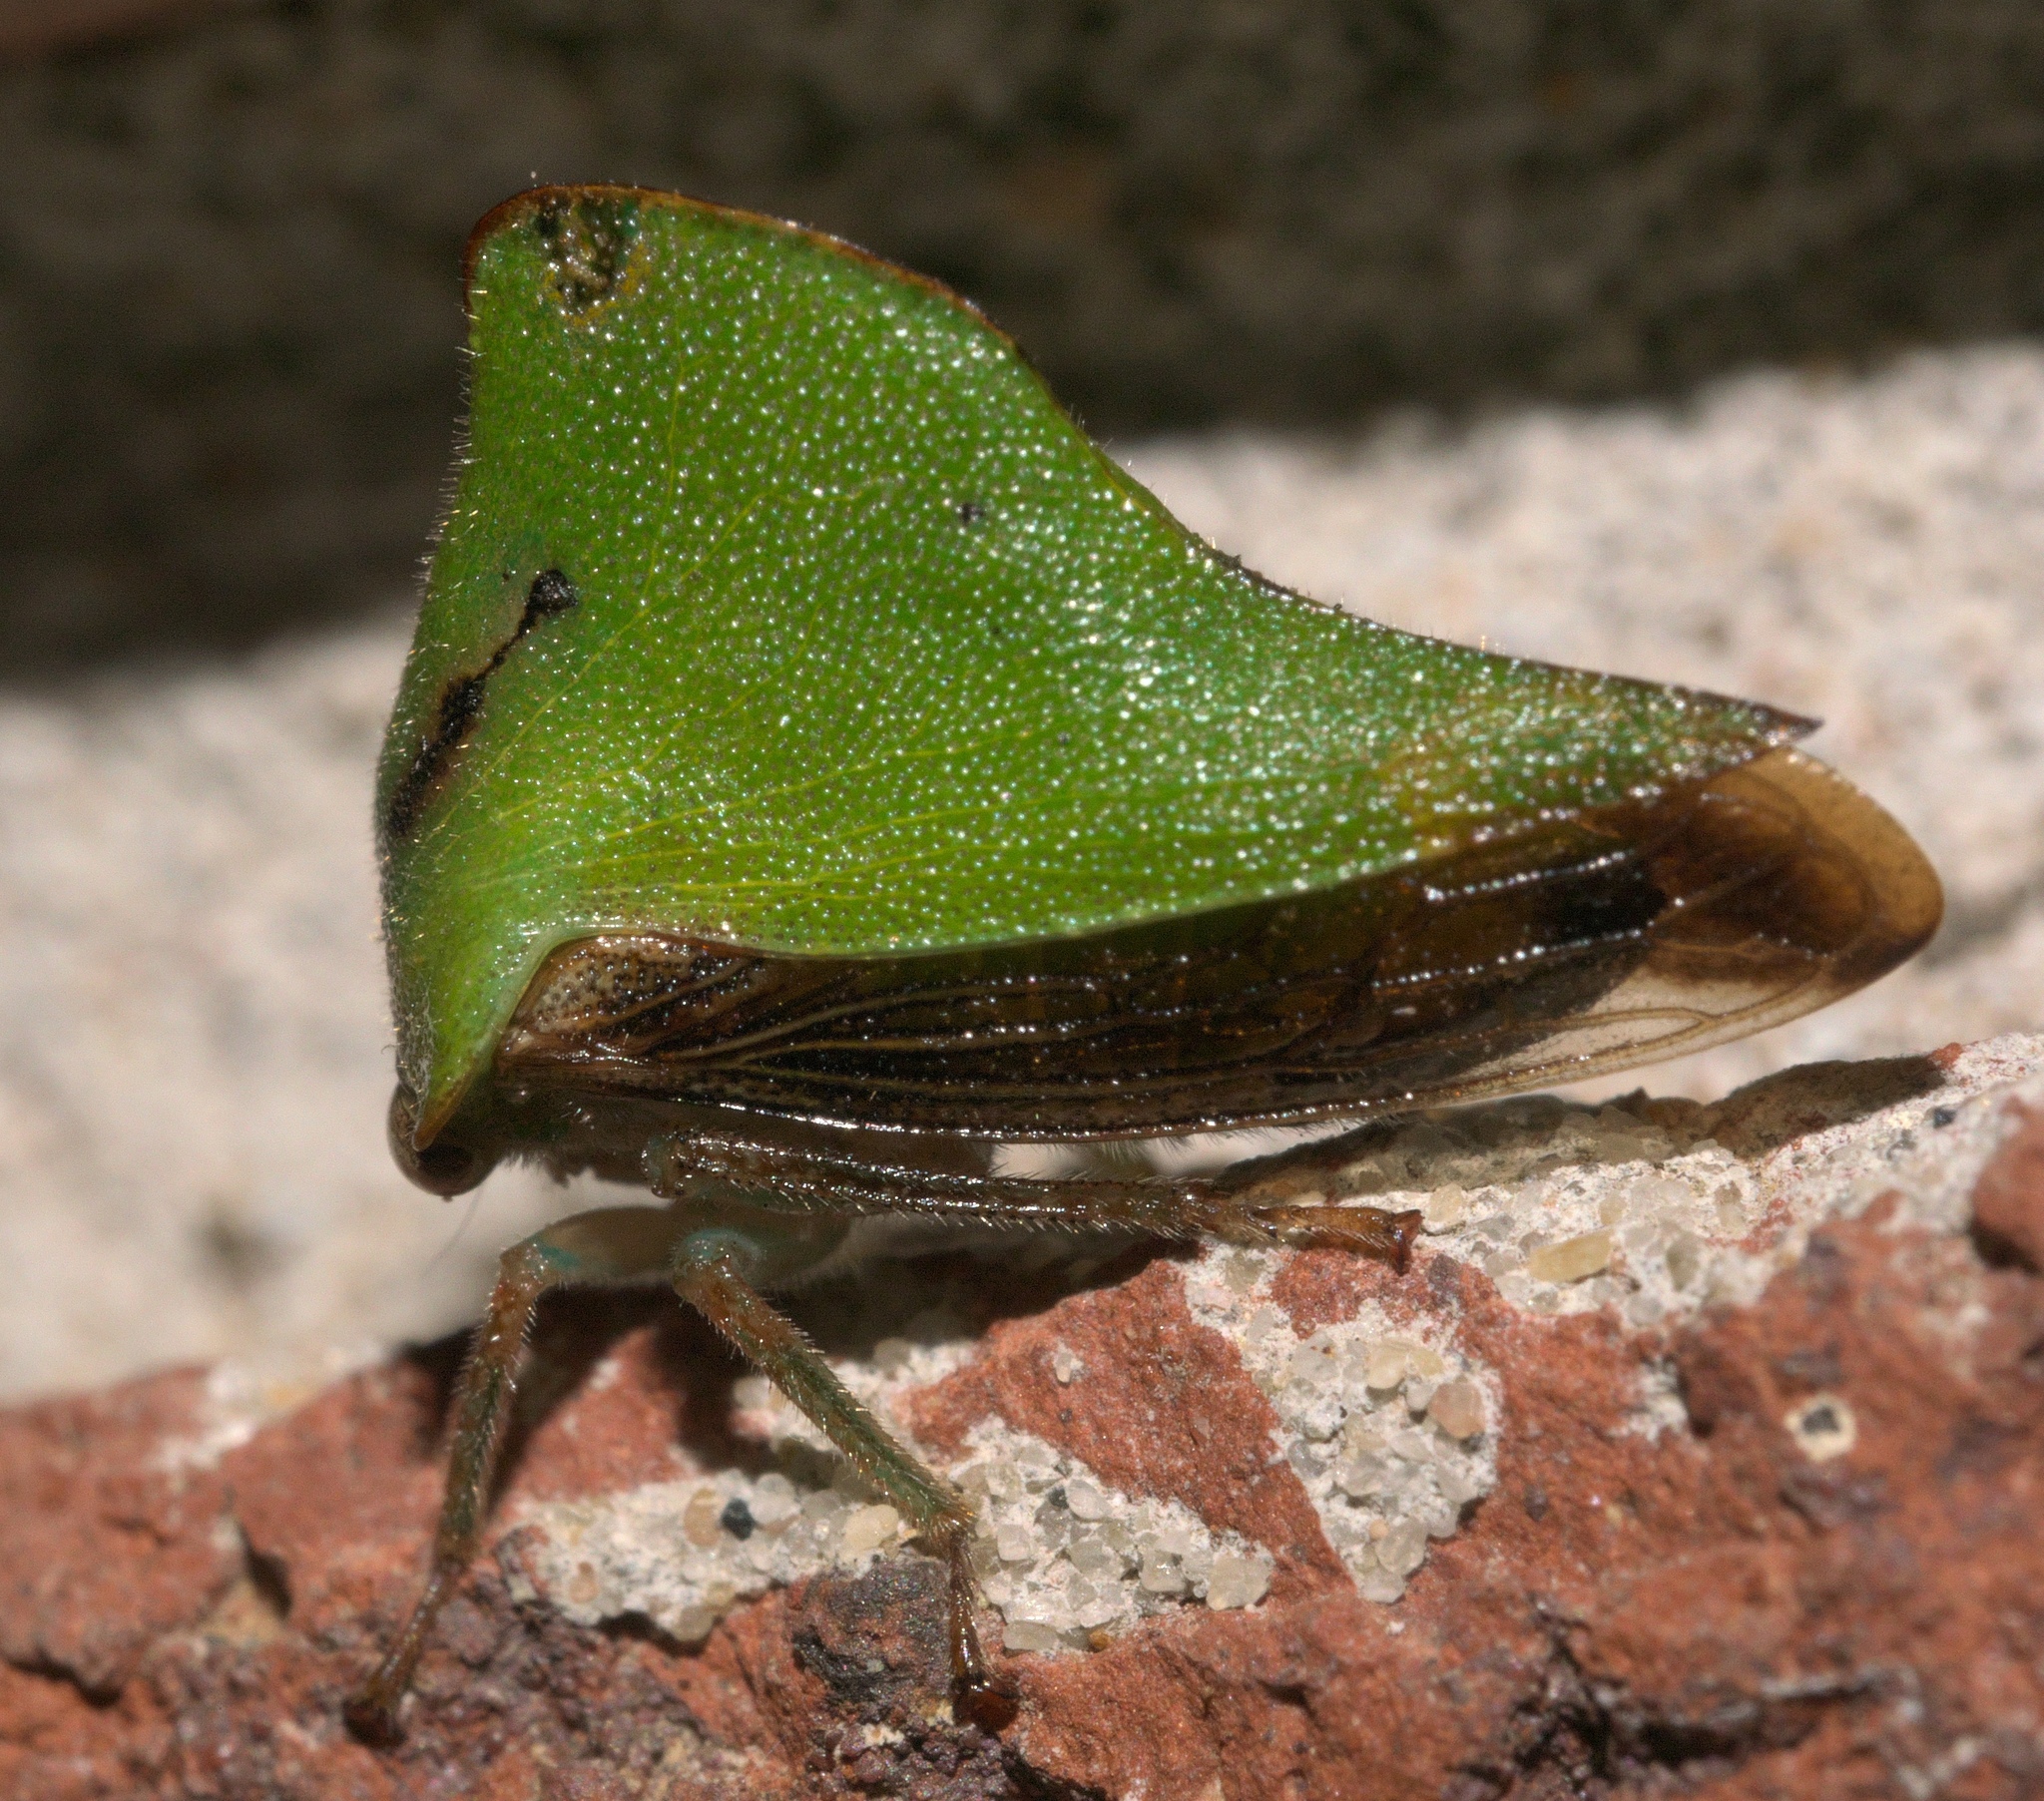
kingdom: Animalia
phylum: Arthropoda
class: Insecta
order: Hemiptera
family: Membracidae
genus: Helonica
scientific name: Helonica excelsa
